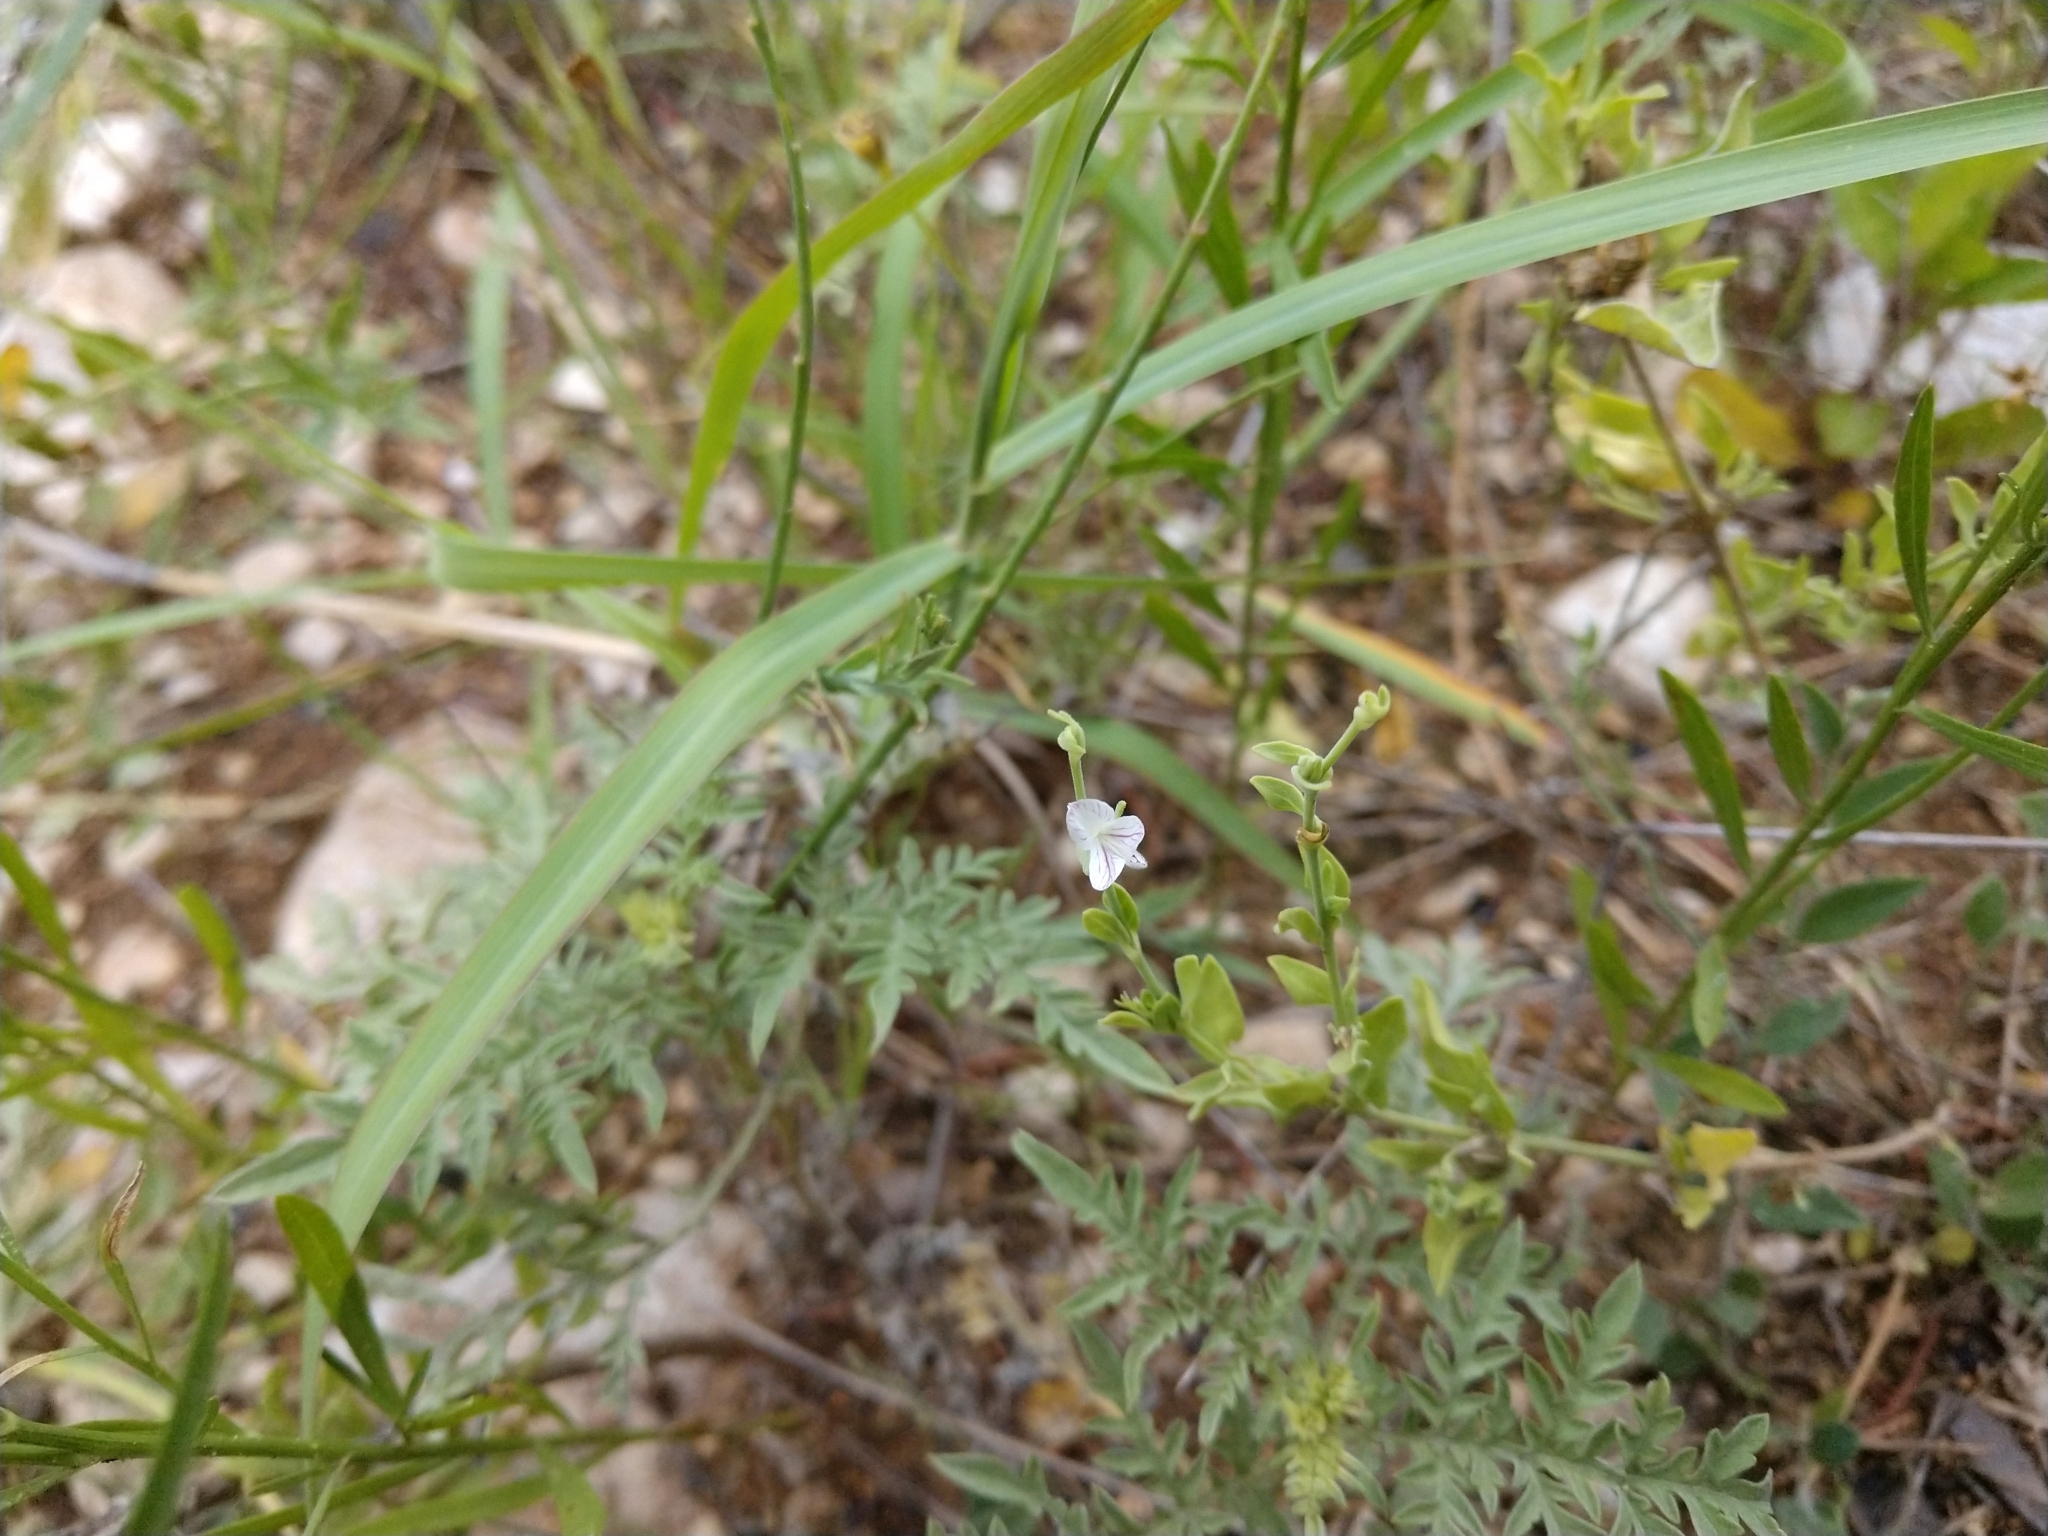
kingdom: Plantae
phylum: Tracheophyta
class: Magnoliopsida
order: Lamiales
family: Acanthaceae
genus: Carlowrightia
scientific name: Carlowrightia texana
